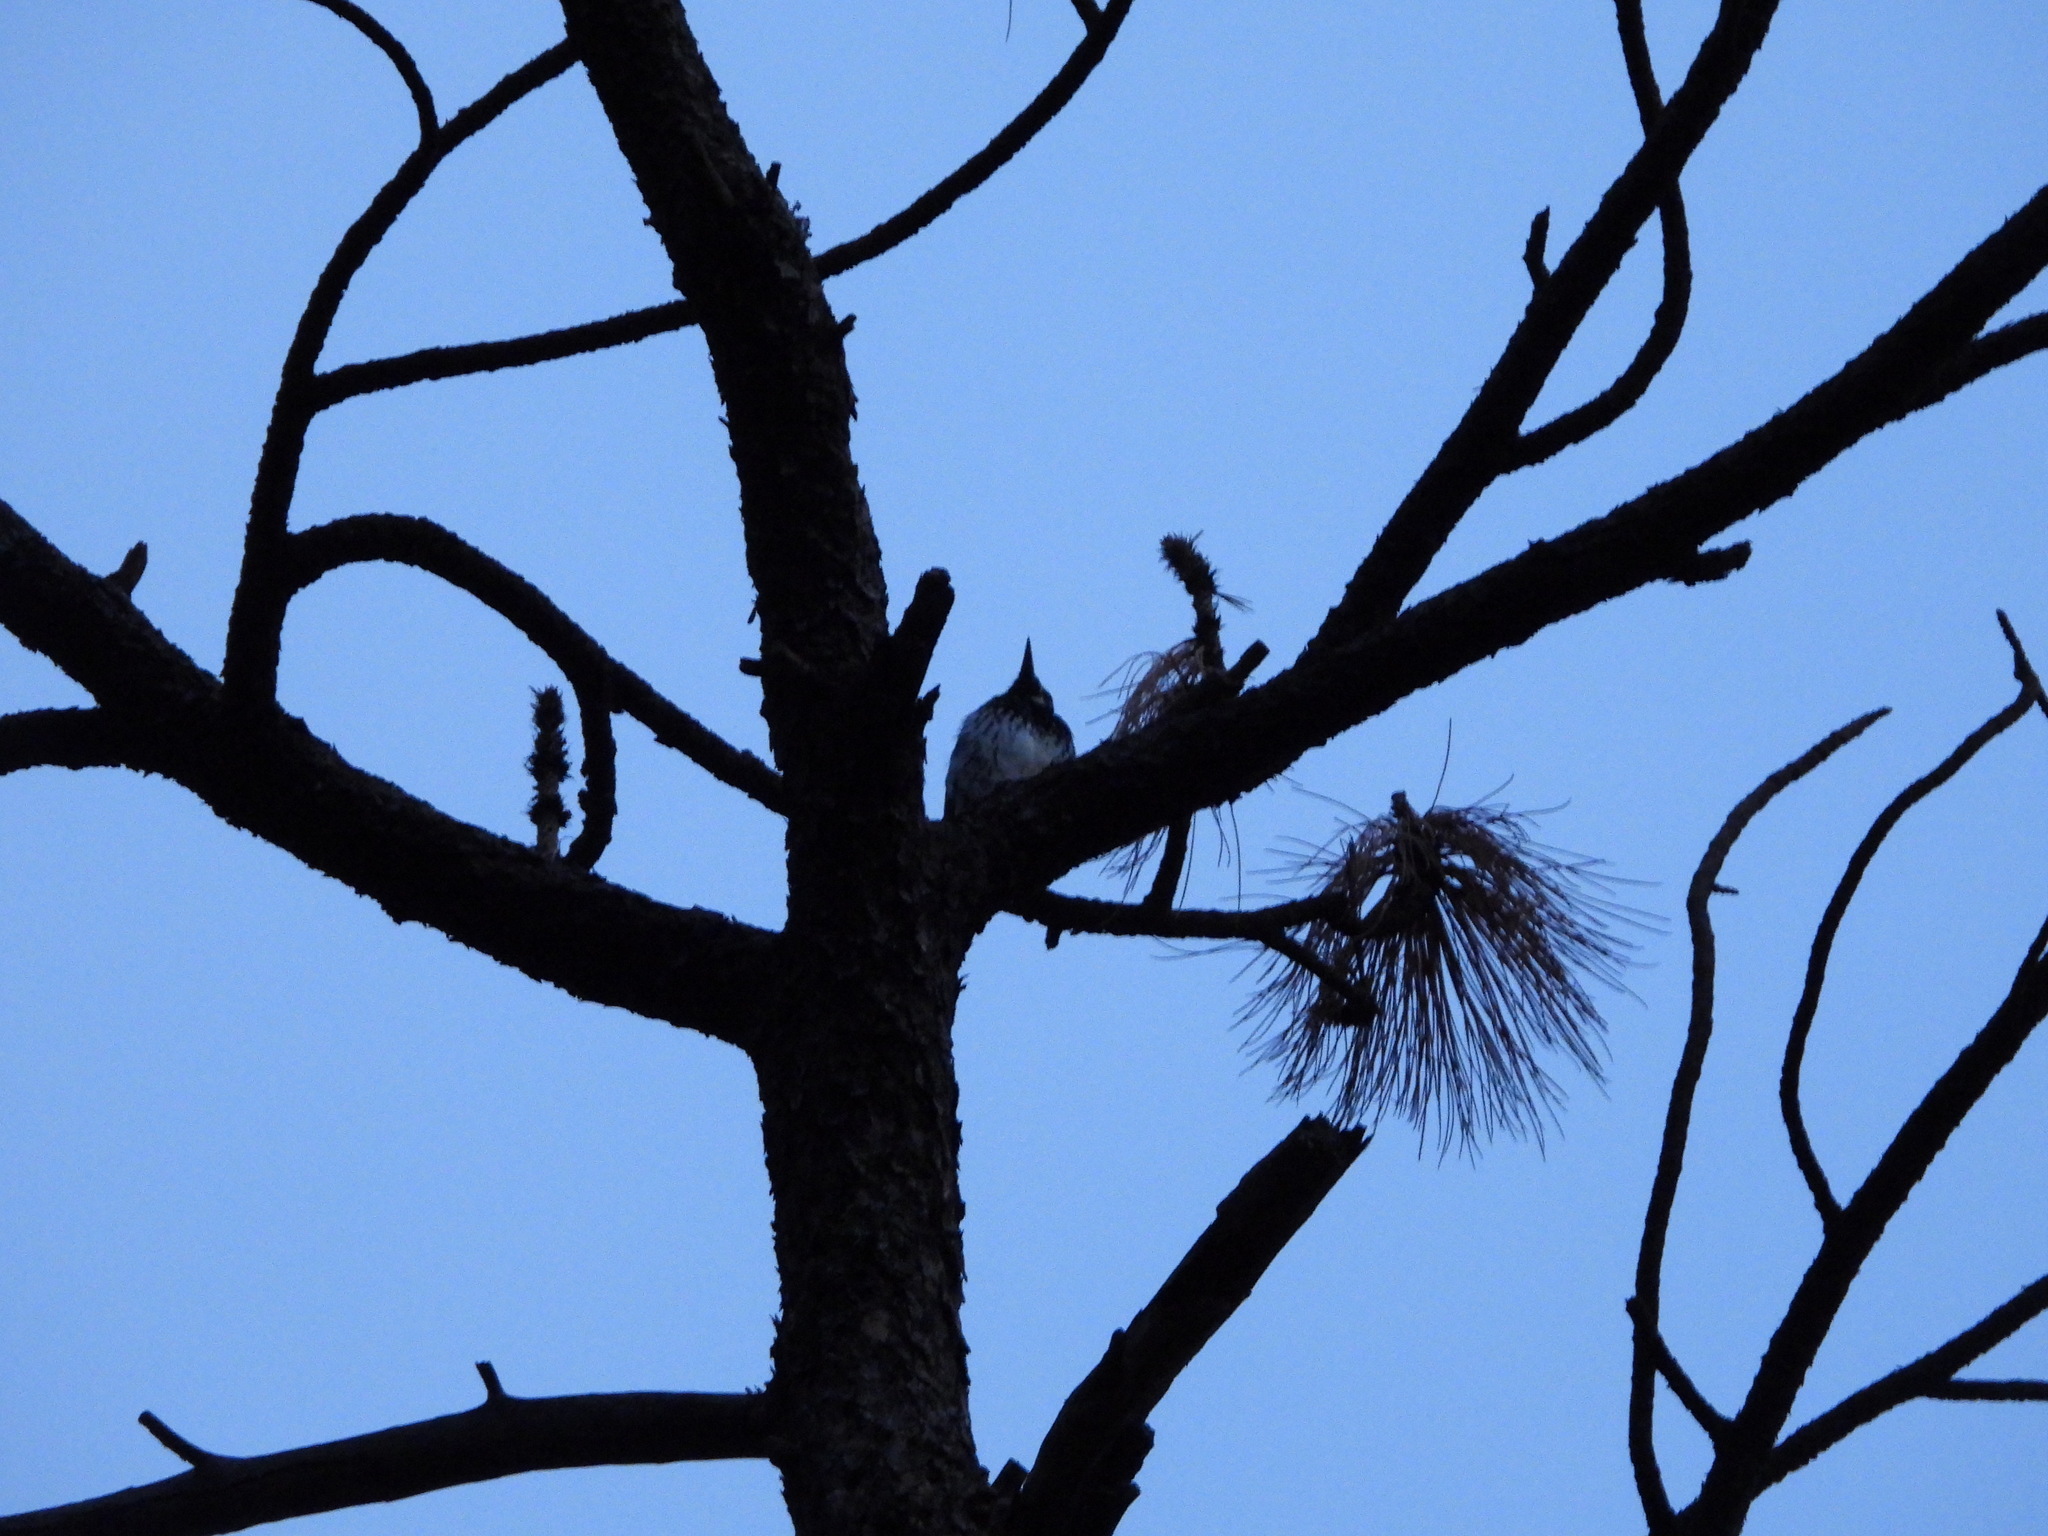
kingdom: Animalia
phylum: Chordata
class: Aves
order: Piciformes
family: Picidae
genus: Melanerpes
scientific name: Melanerpes formicivorus
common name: Acorn woodpecker
